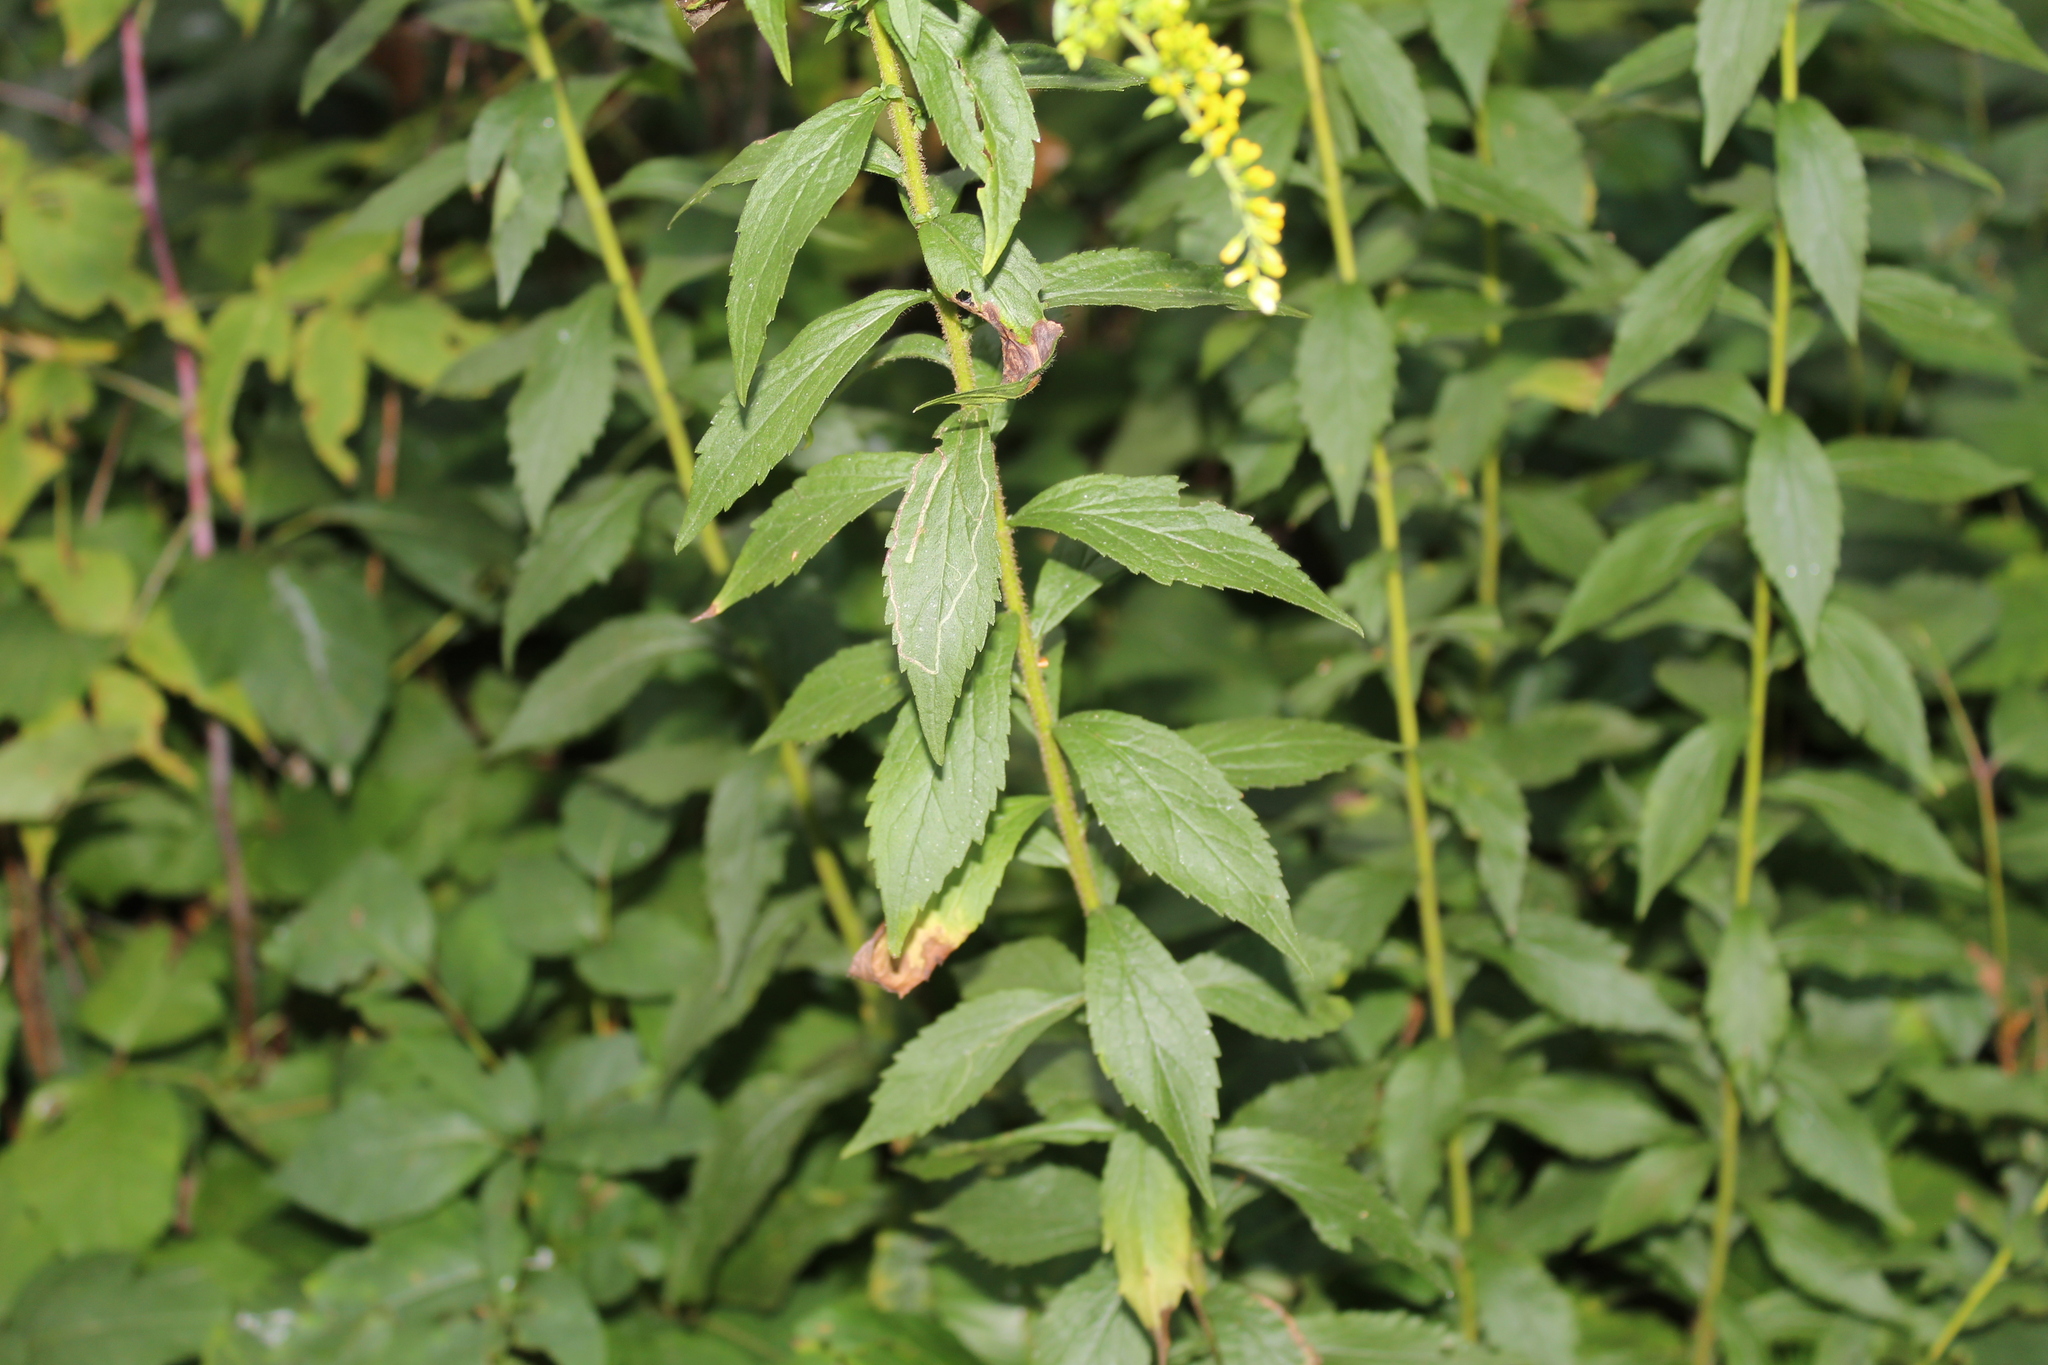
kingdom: Animalia
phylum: Arthropoda
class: Insecta
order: Diptera
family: Agromyzidae
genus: Ophiomyia
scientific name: Ophiomyia maura
